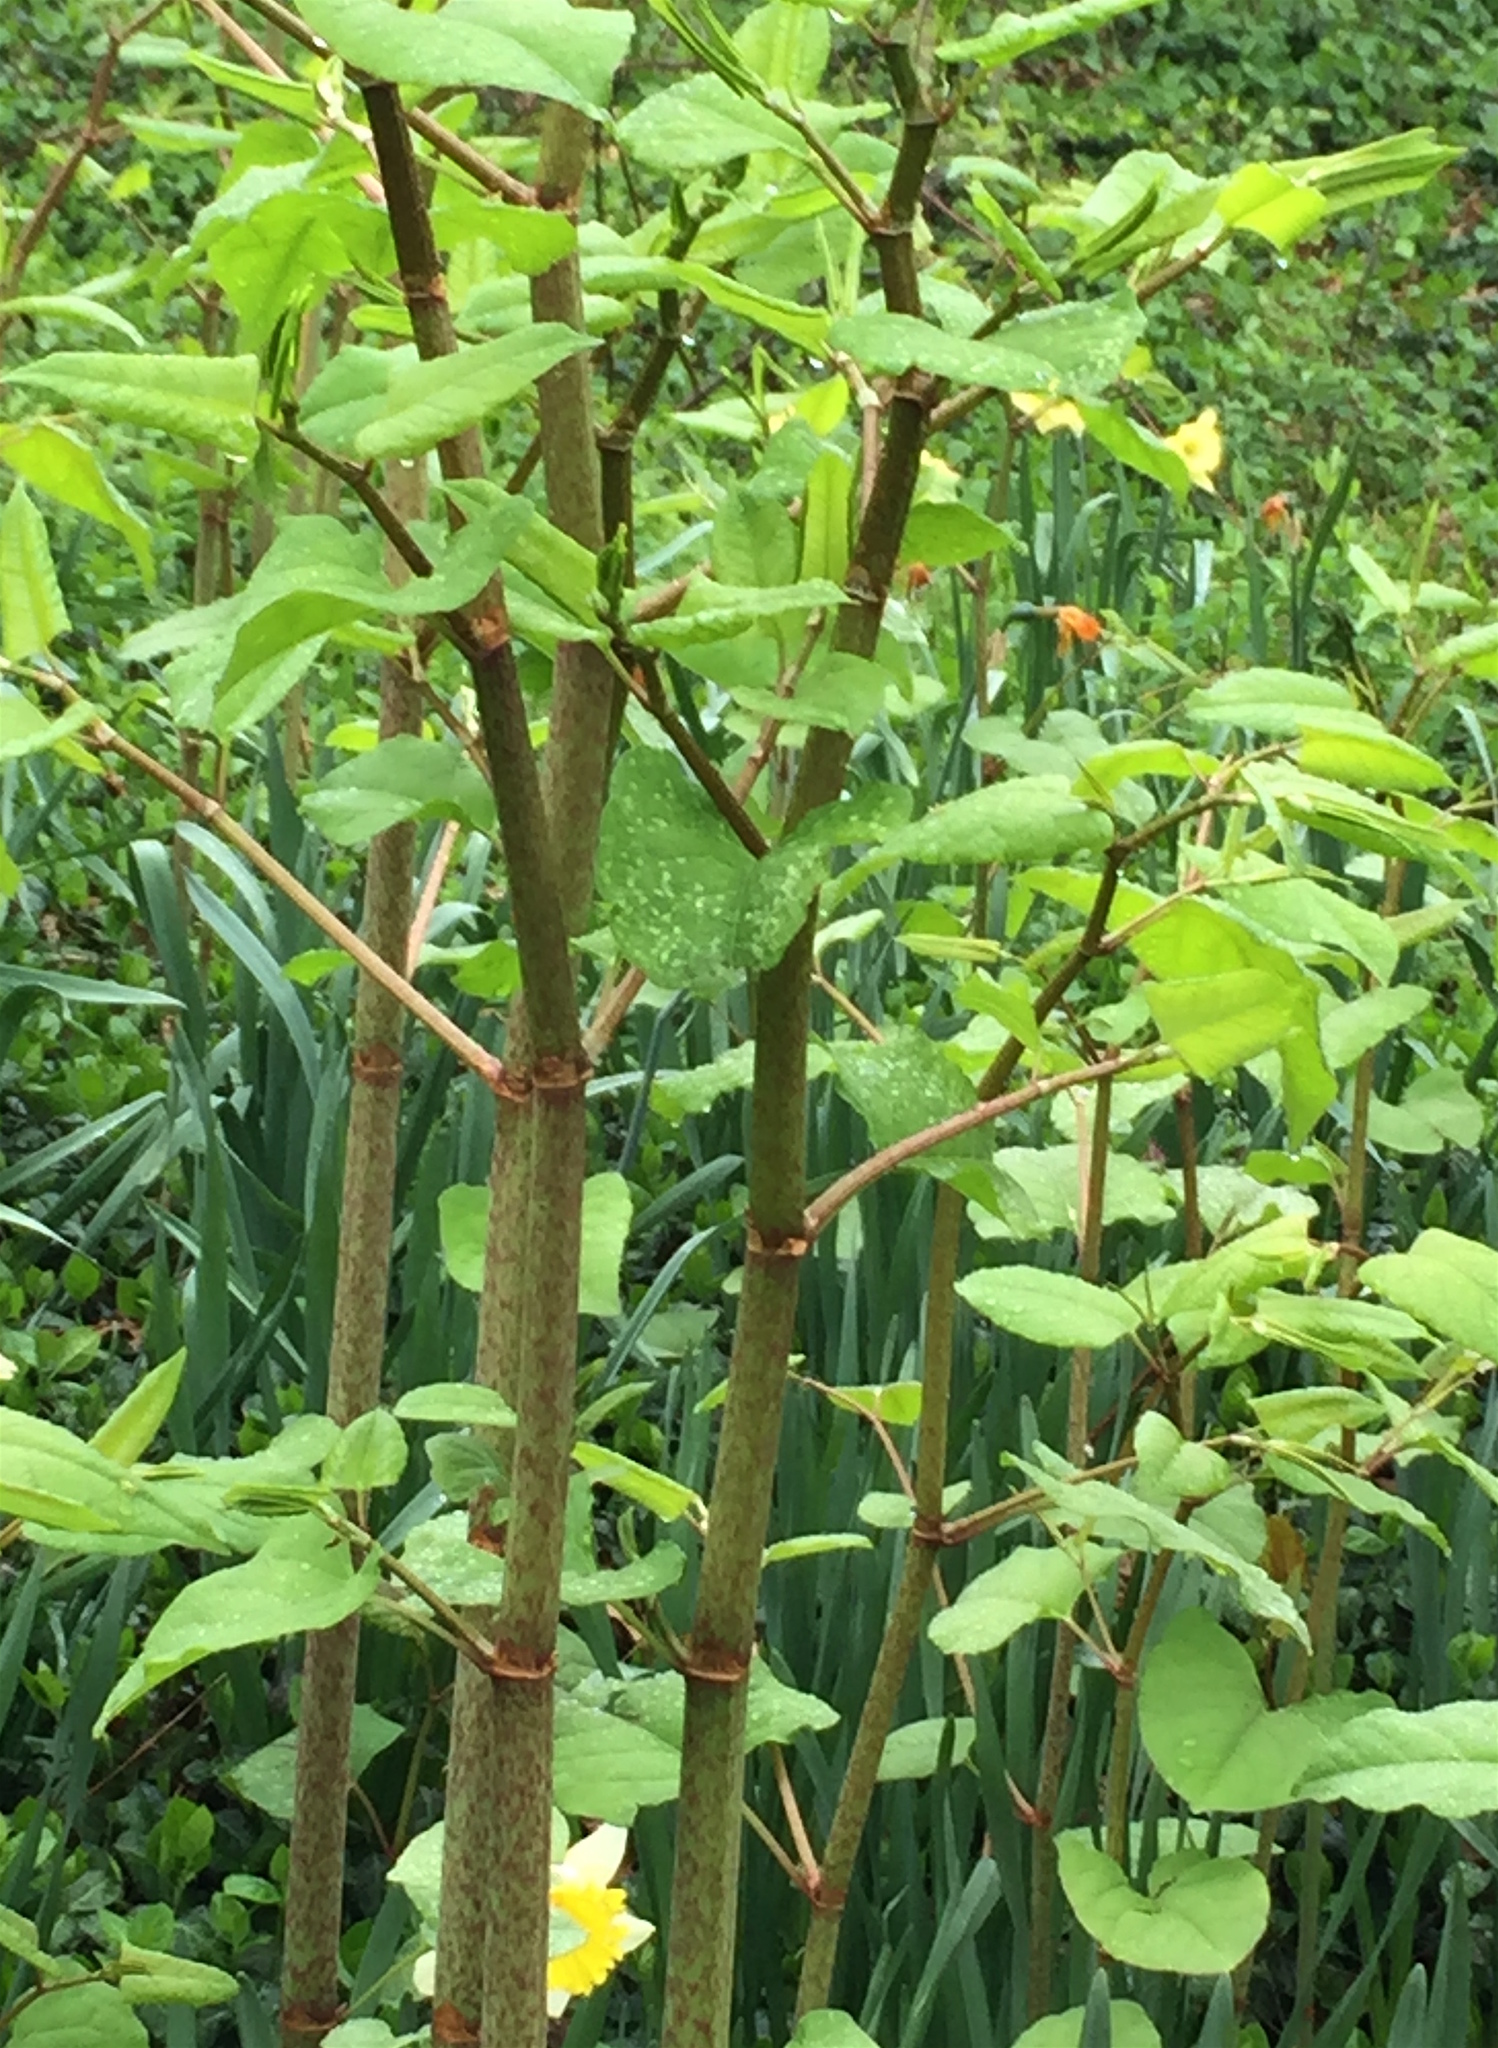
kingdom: Plantae
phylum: Tracheophyta
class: Magnoliopsida
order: Caryophyllales
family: Polygonaceae
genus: Reynoutria
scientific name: Reynoutria japonica
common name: Japanese knotweed
